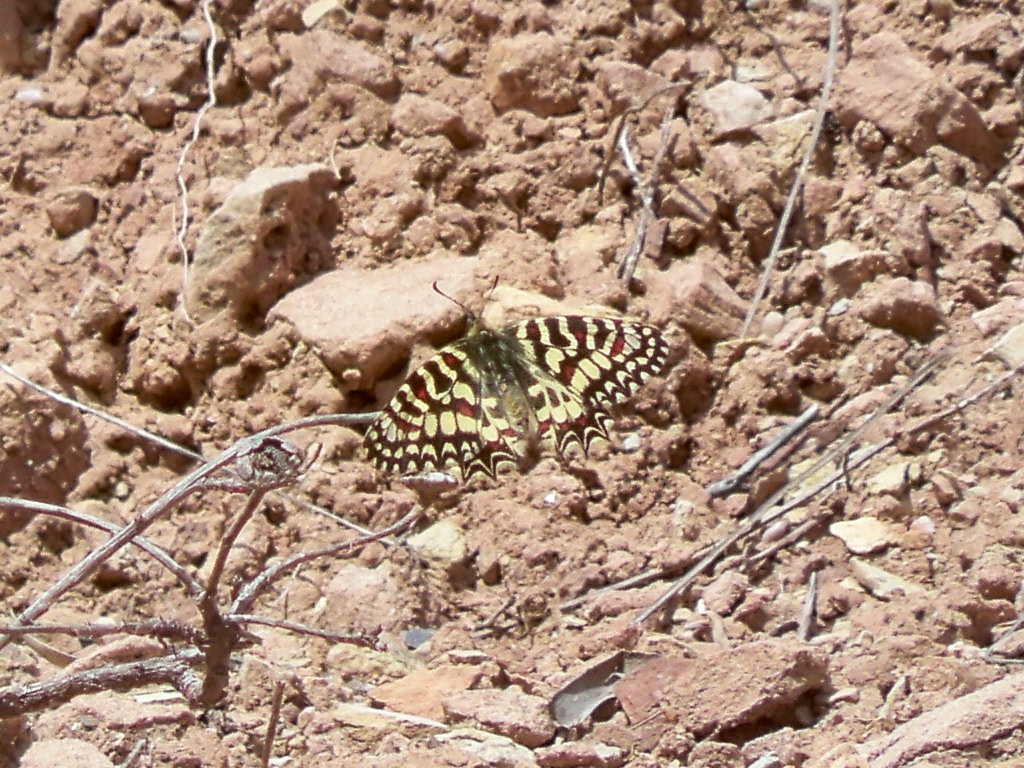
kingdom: Animalia
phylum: Arthropoda
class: Insecta
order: Lepidoptera
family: Papilionidae
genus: Zerynthia
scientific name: Zerynthia rumina
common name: Spanish festoon
